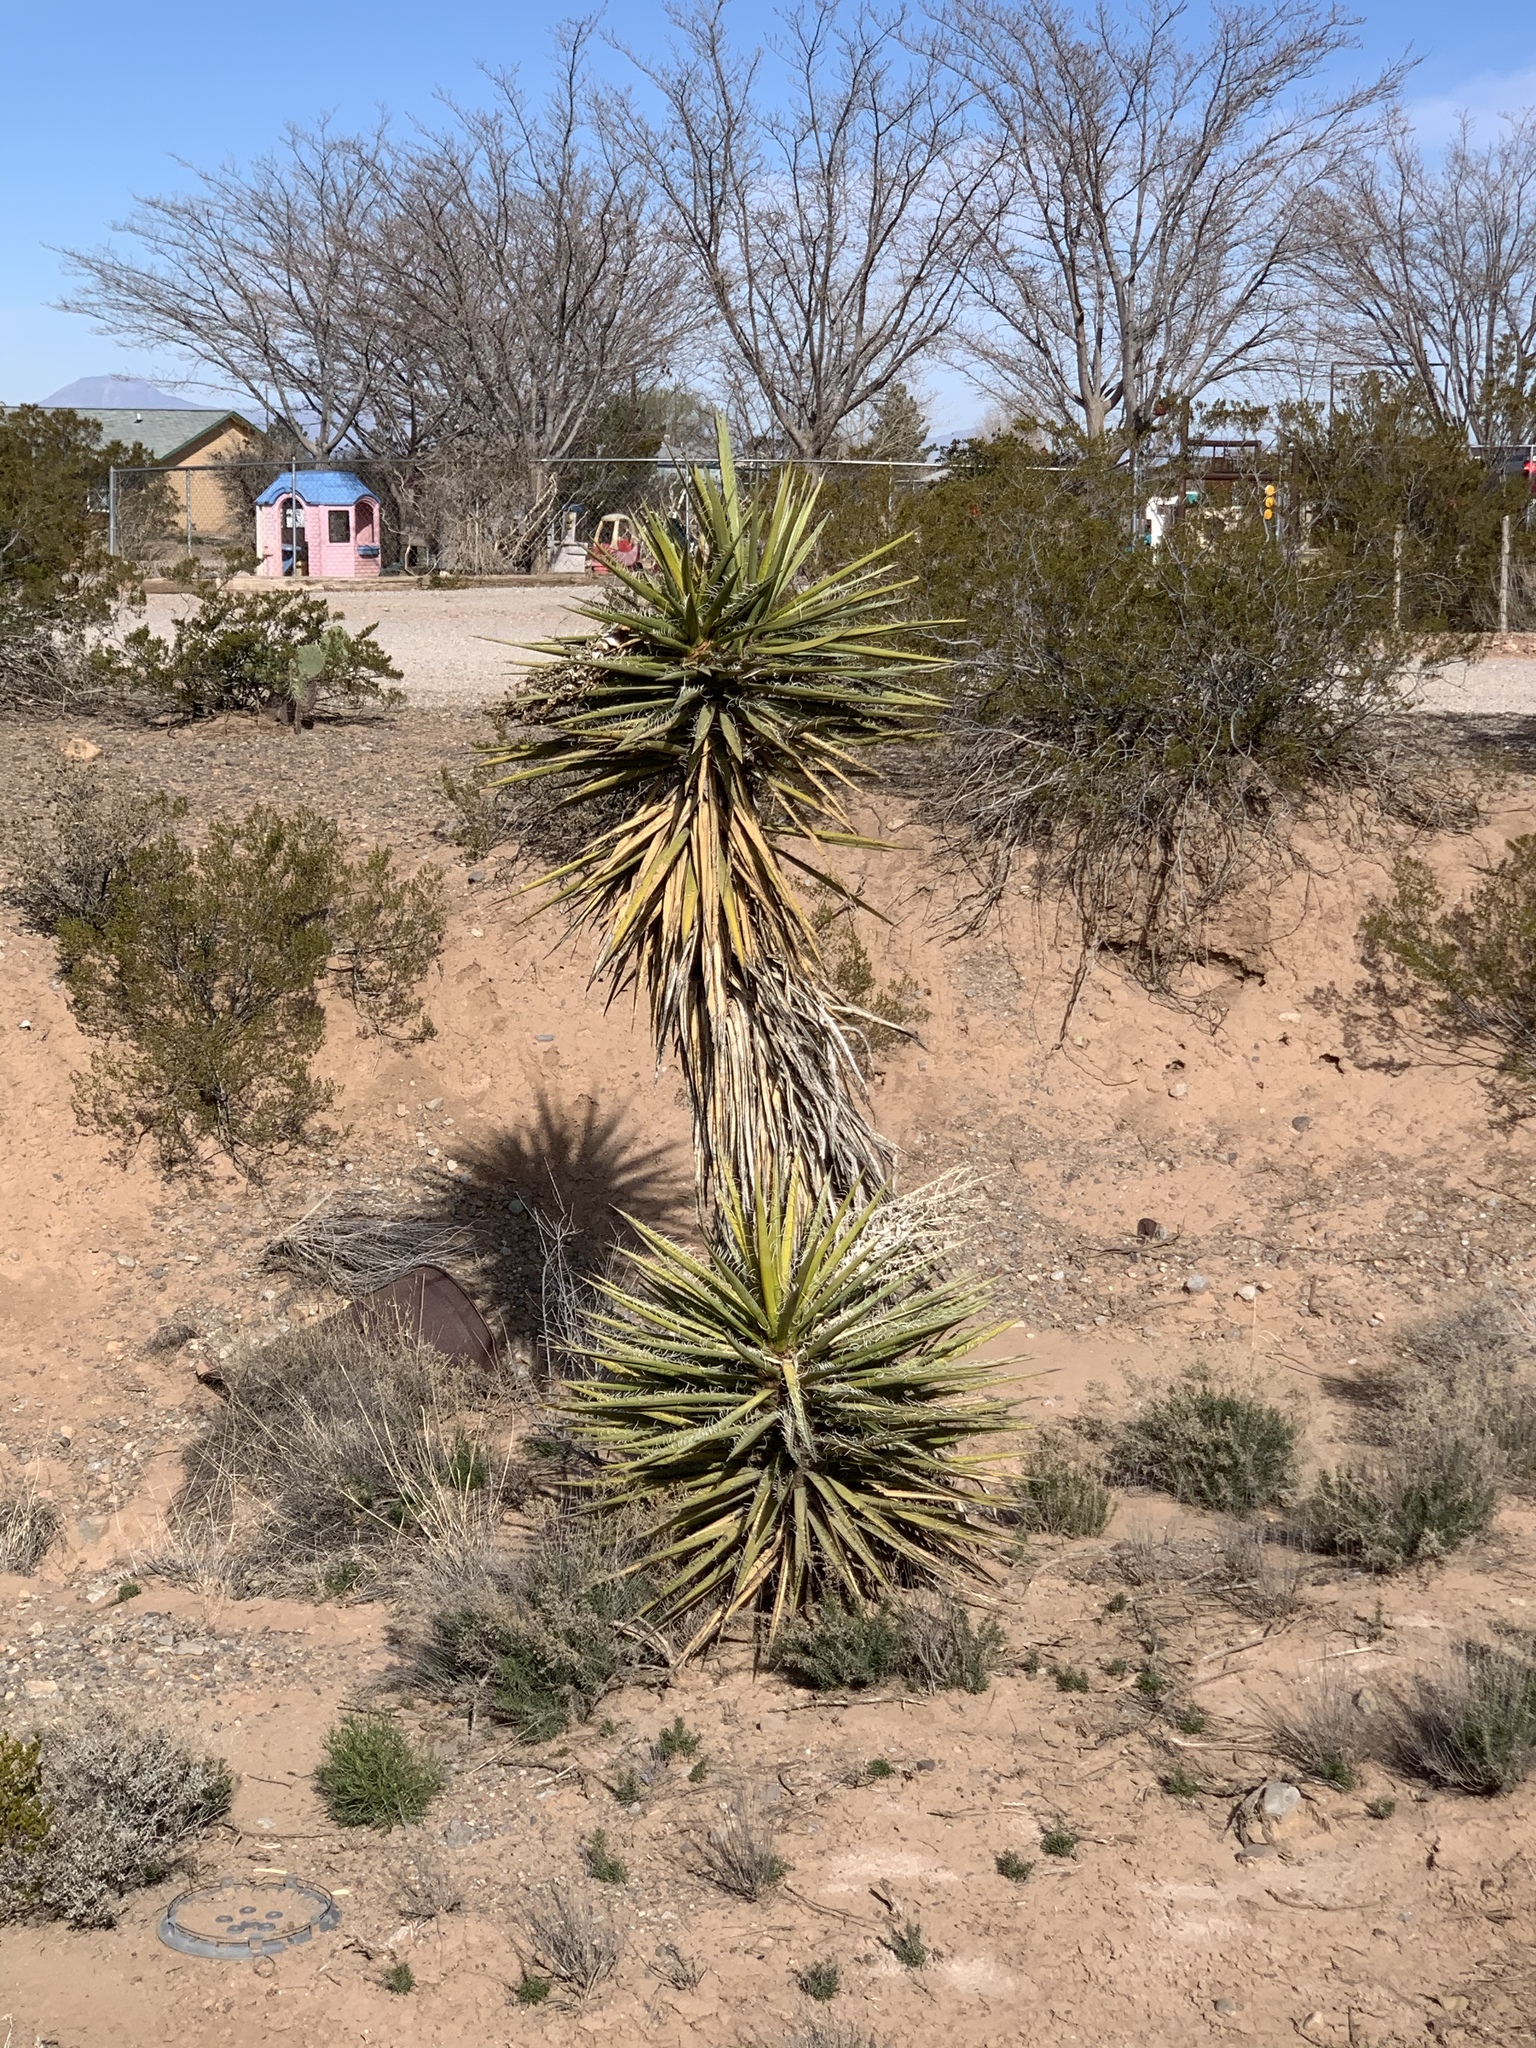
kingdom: Plantae
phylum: Tracheophyta
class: Liliopsida
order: Asparagales
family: Asparagaceae
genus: Yucca
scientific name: Yucca treculiana
